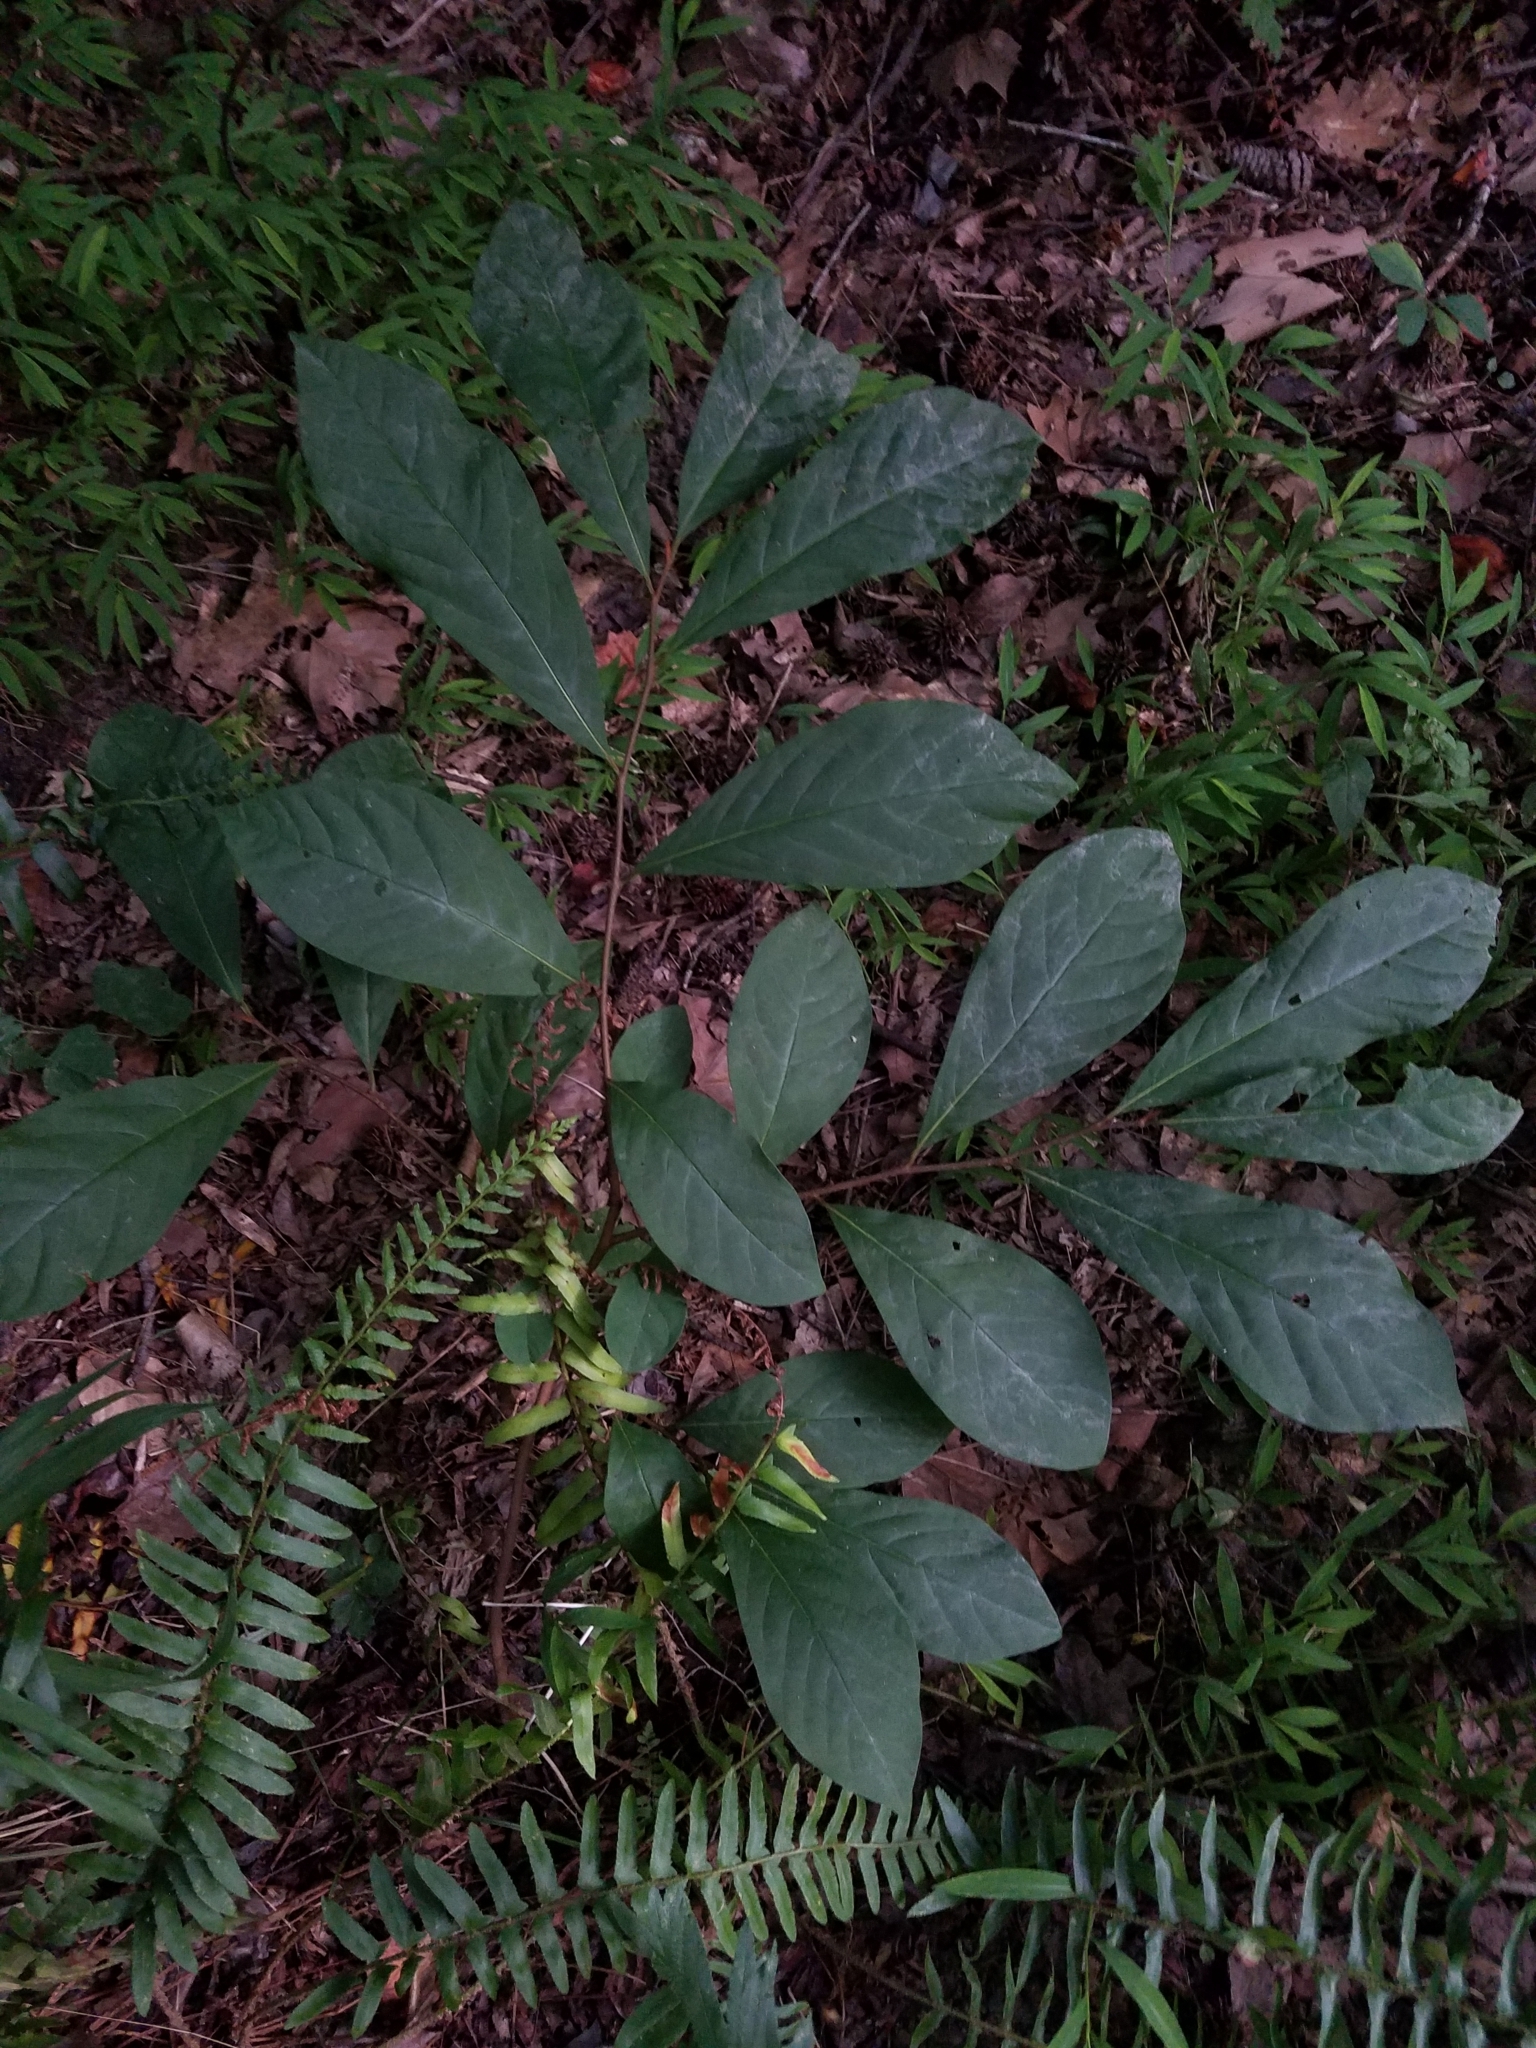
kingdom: Plantae
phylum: Tracheophyta
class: Magnoliopsida
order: Magnoliales
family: Annonaceae
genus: Asimina
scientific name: Asimina parviflora
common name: Dwarf pawpaw
